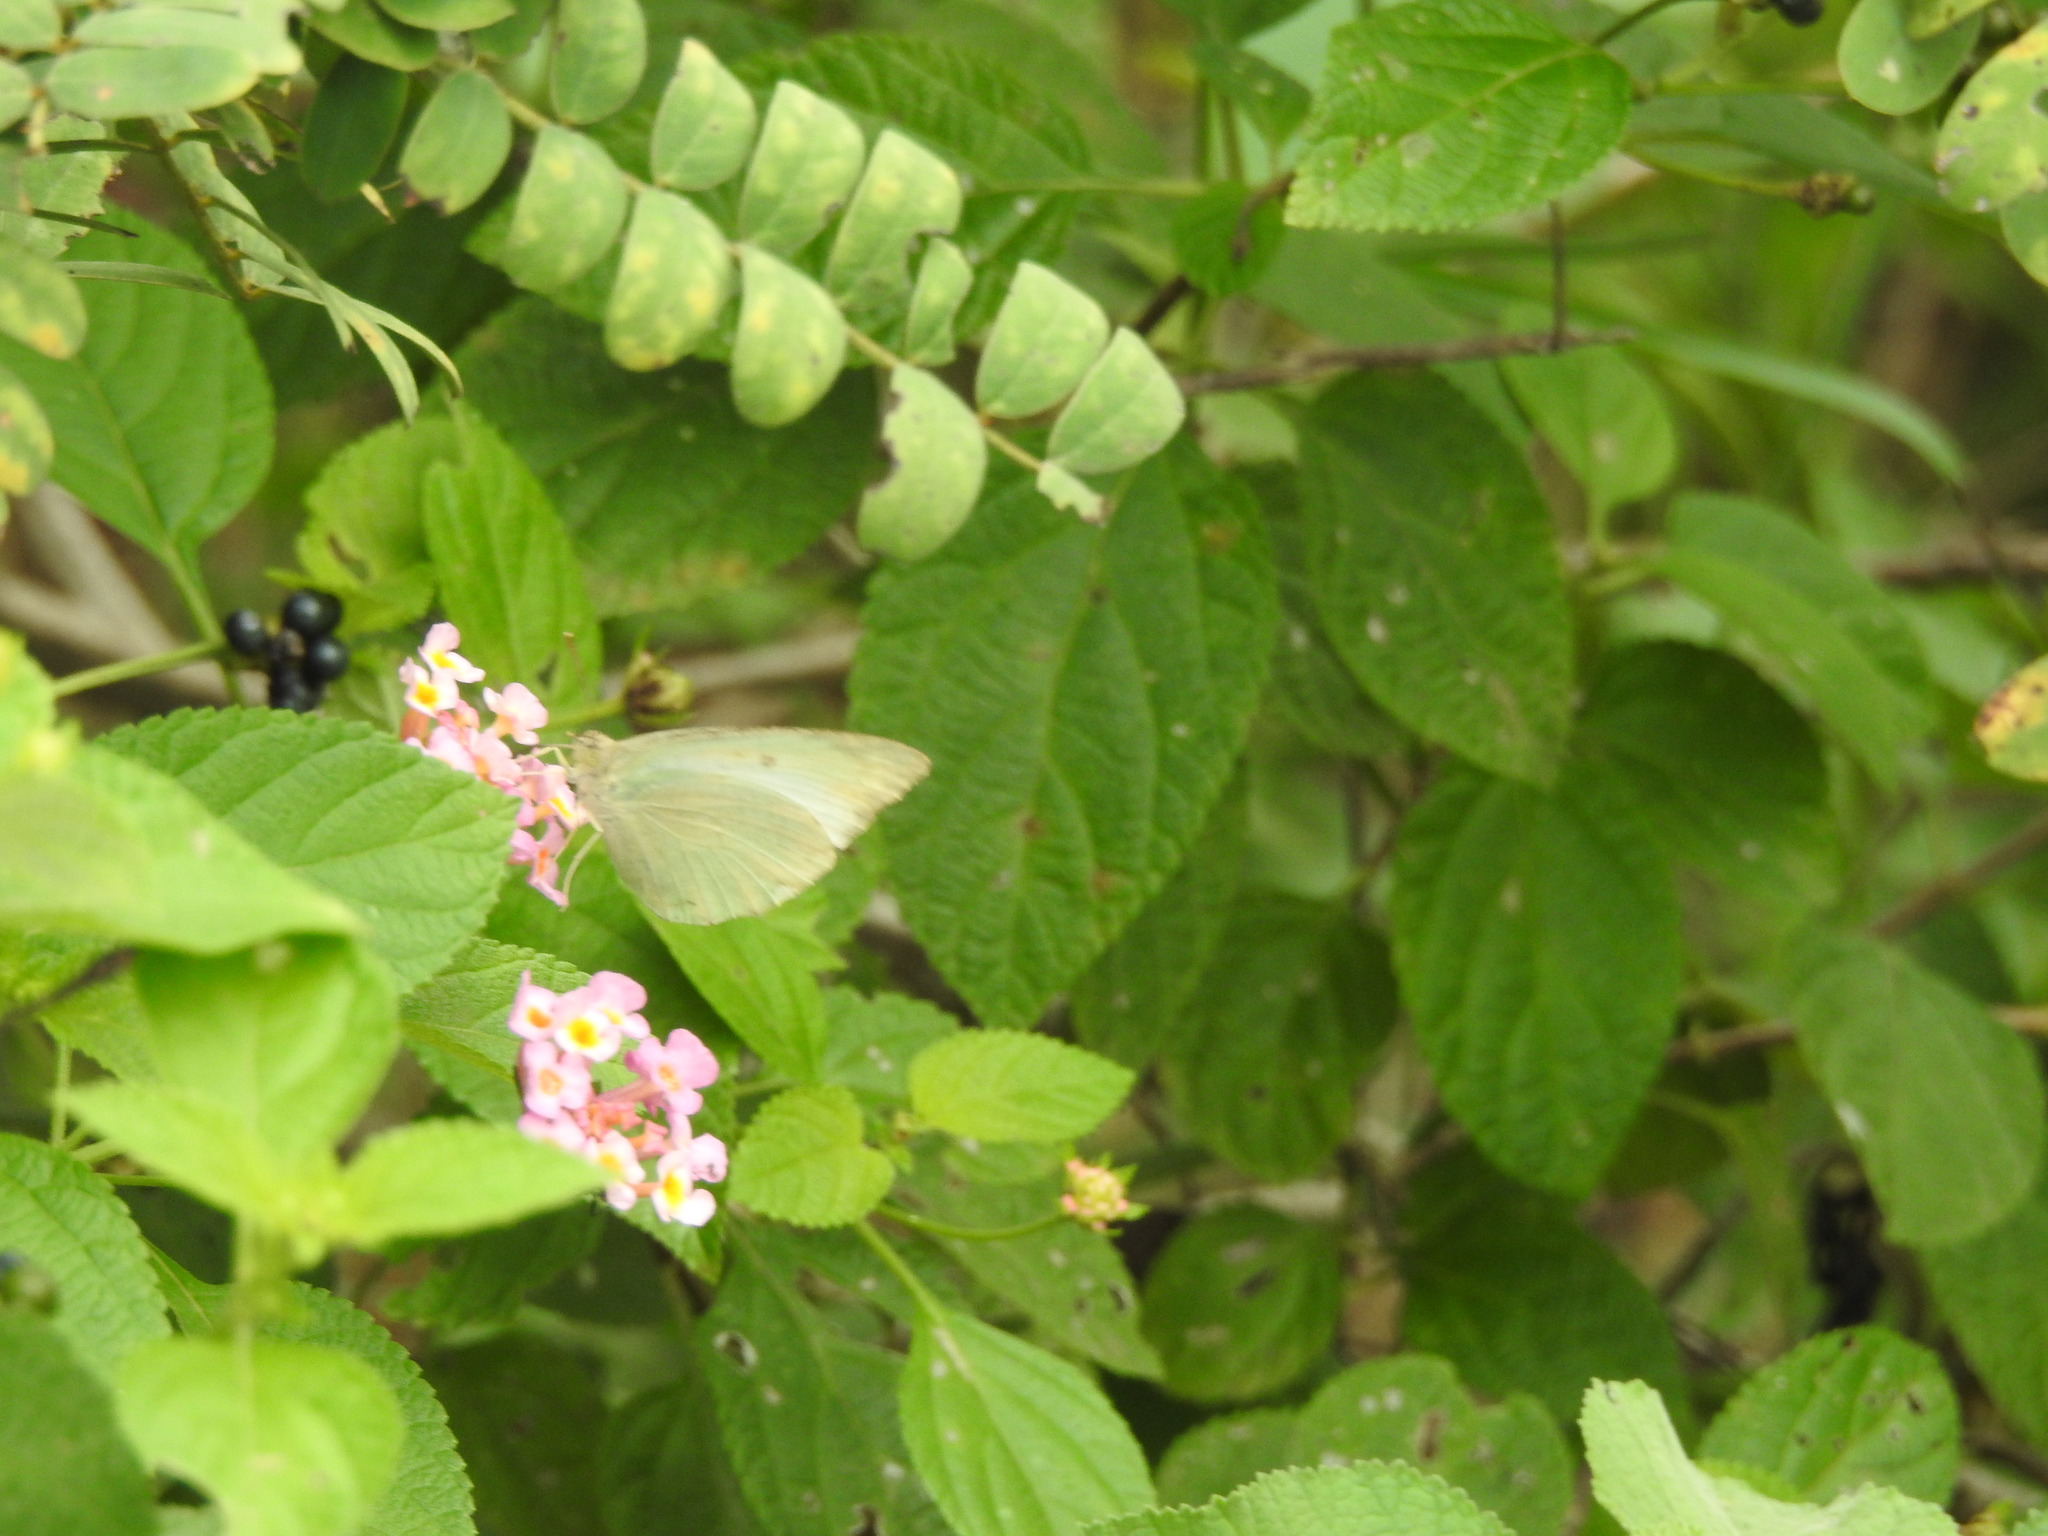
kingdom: Plantae
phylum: Tracheophyta
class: Magnoliopsida
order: Lamiales
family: Verbenaceae
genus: Lantana
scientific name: Lantana camara
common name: Lantana
